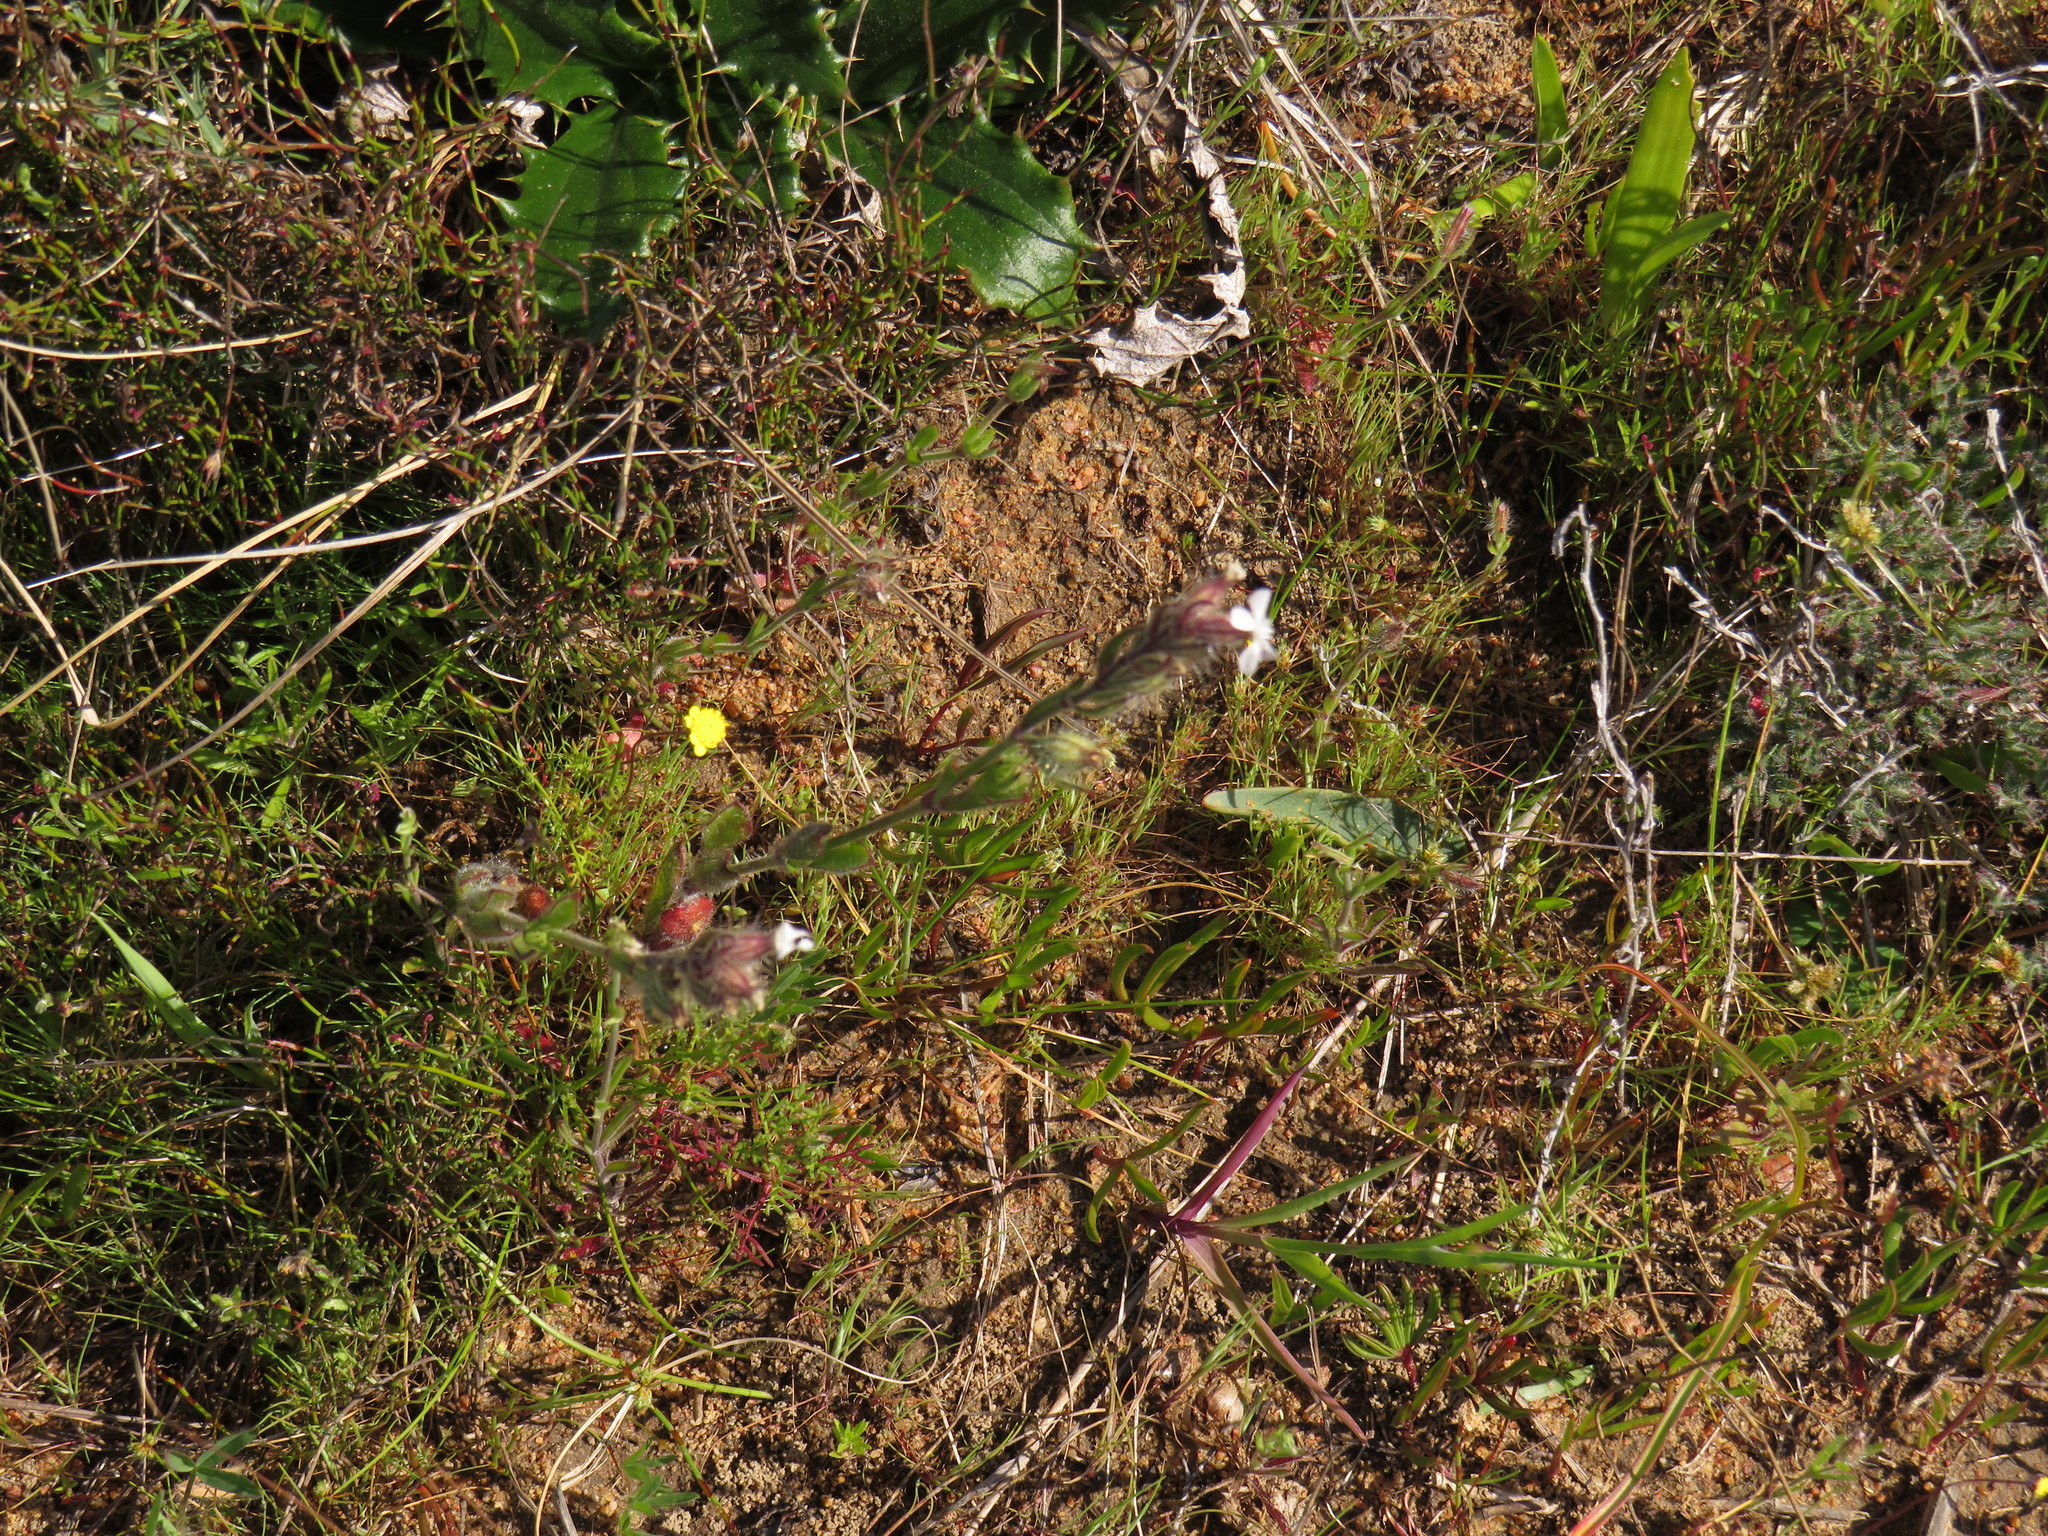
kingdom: Plantae
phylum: Tracheophyta
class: Magnoliopsida
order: Caryophyllales
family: Caryophyllaceae
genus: Silene
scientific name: Silene gallica
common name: Small-flowered catchfly
